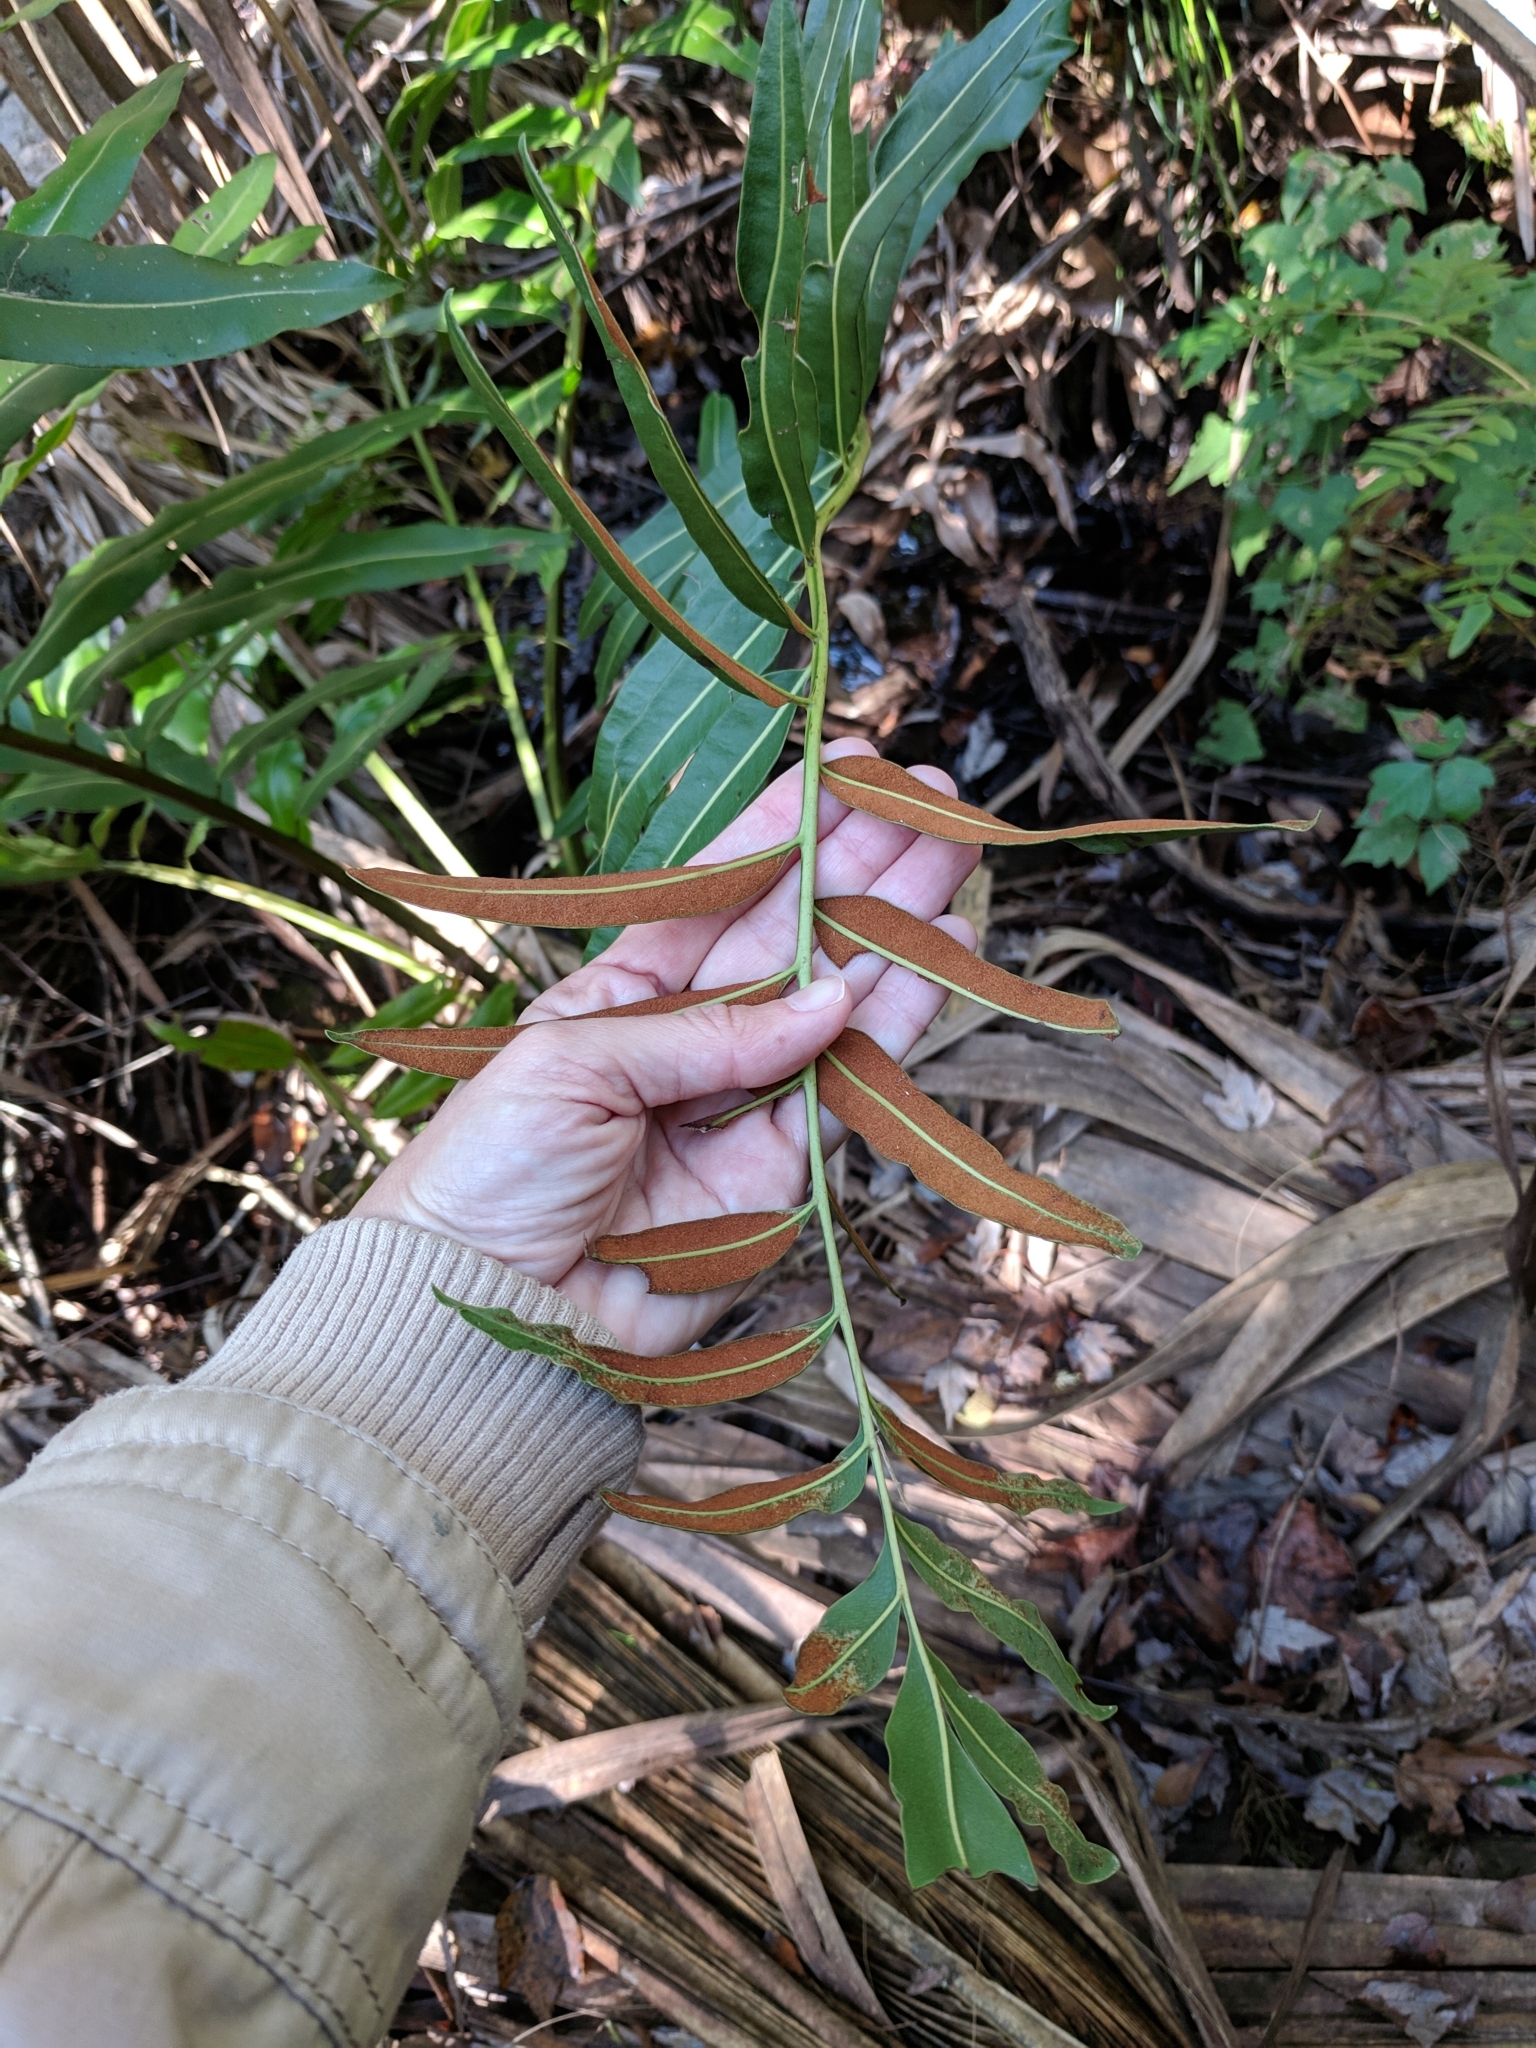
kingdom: Plantae
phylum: Tracheophyta
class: Polypodiopsida
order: Polypodiales
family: Pteridaceae
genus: Acrostichum
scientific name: Acrostichum danaeifolium
